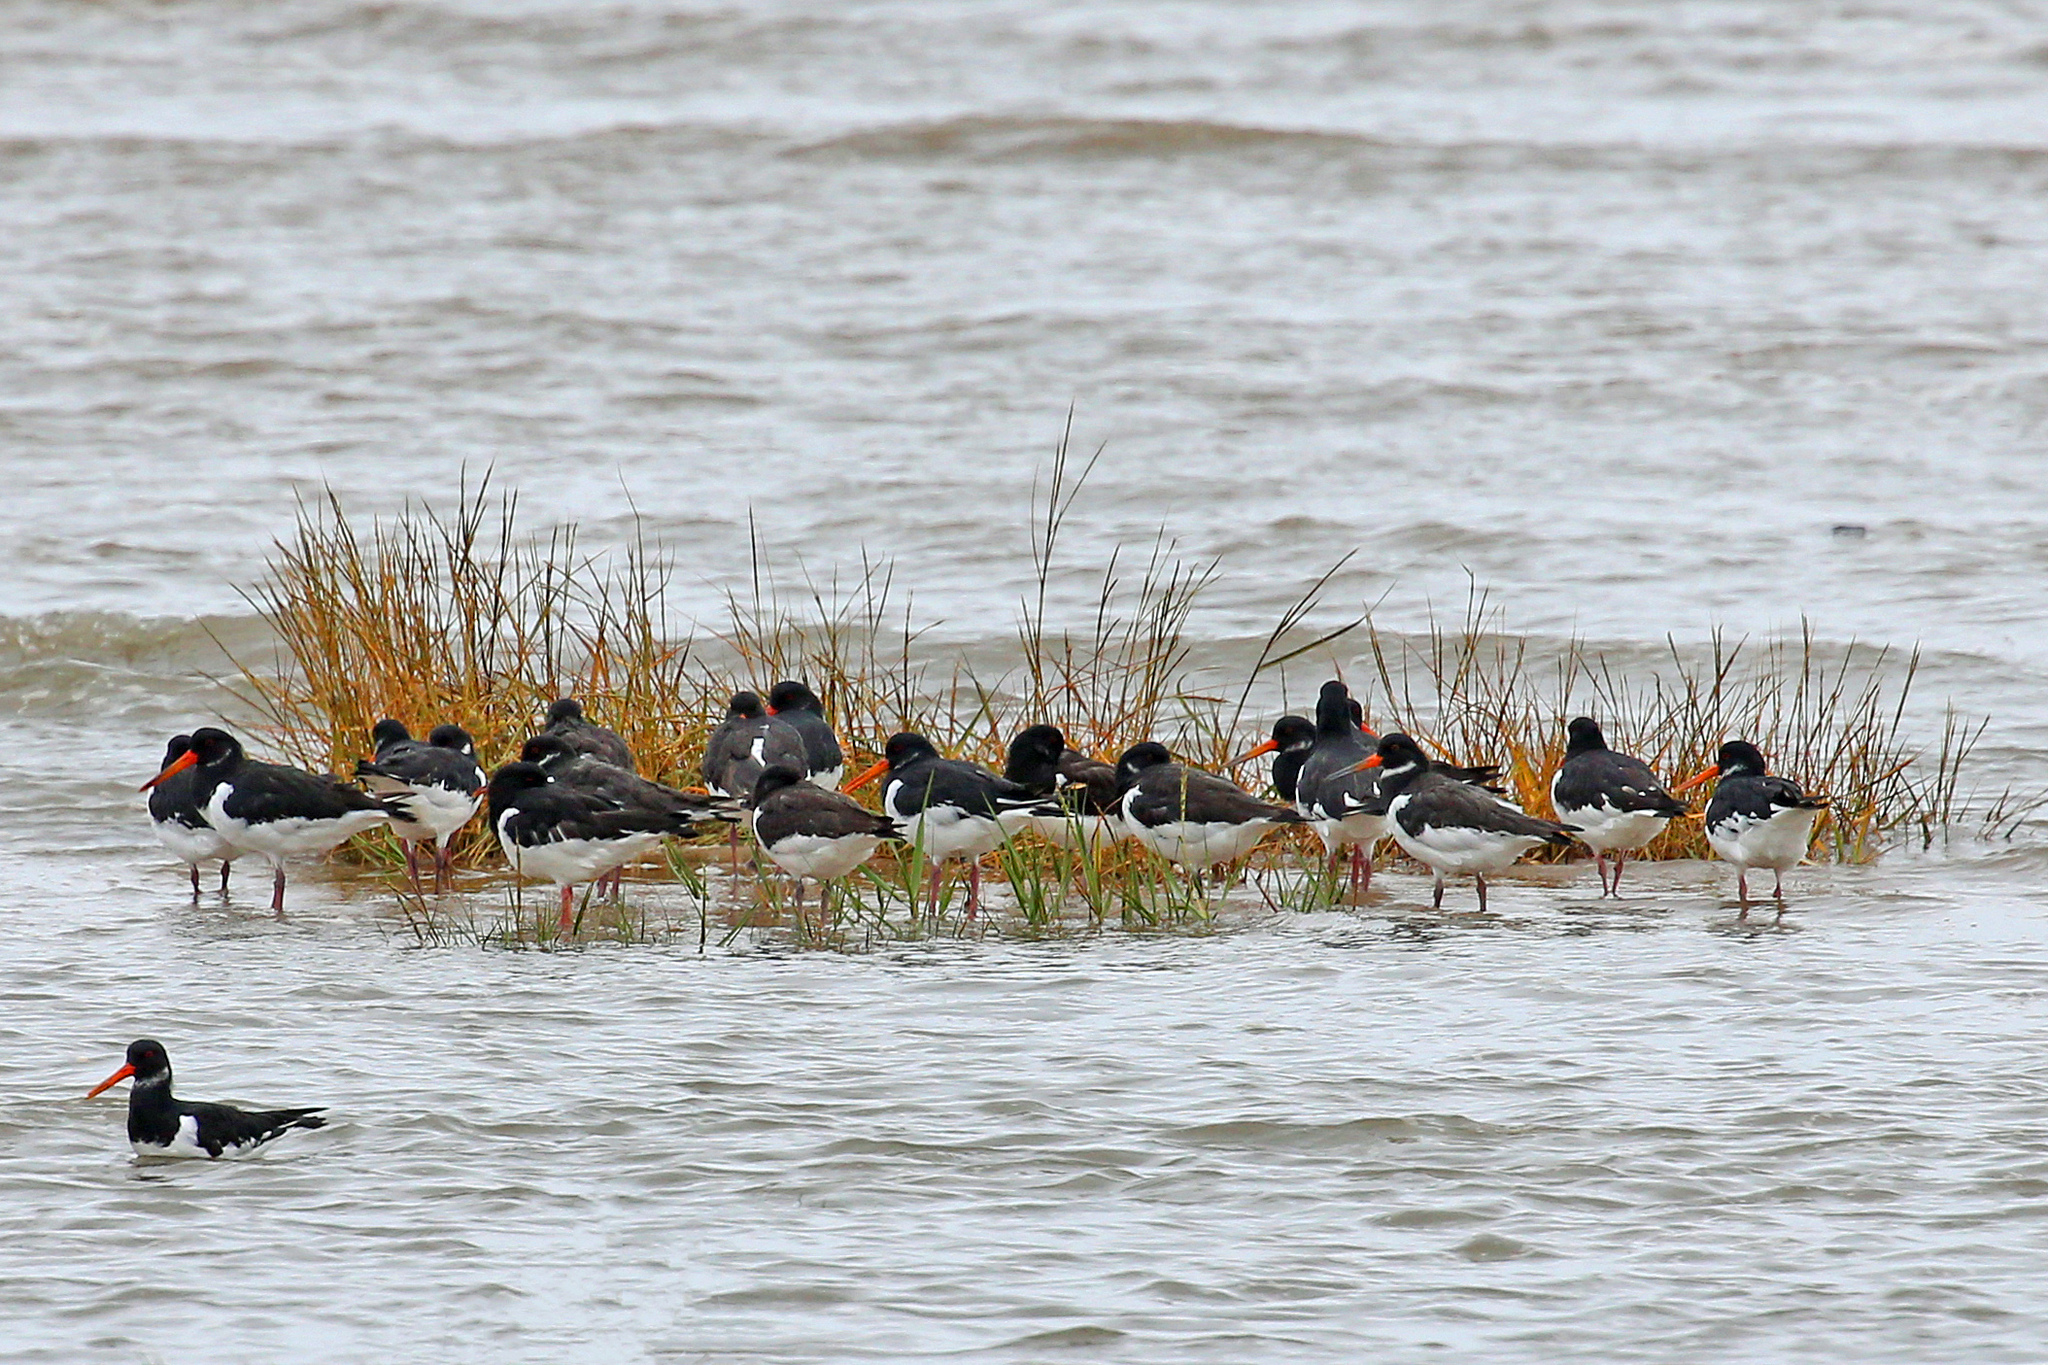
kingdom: Animalia
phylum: Chordata
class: Aves
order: Charadriiformes
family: Haematopodidae
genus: Haematopus
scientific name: Haematopus ostralegus
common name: Eurasian oystercatcher
